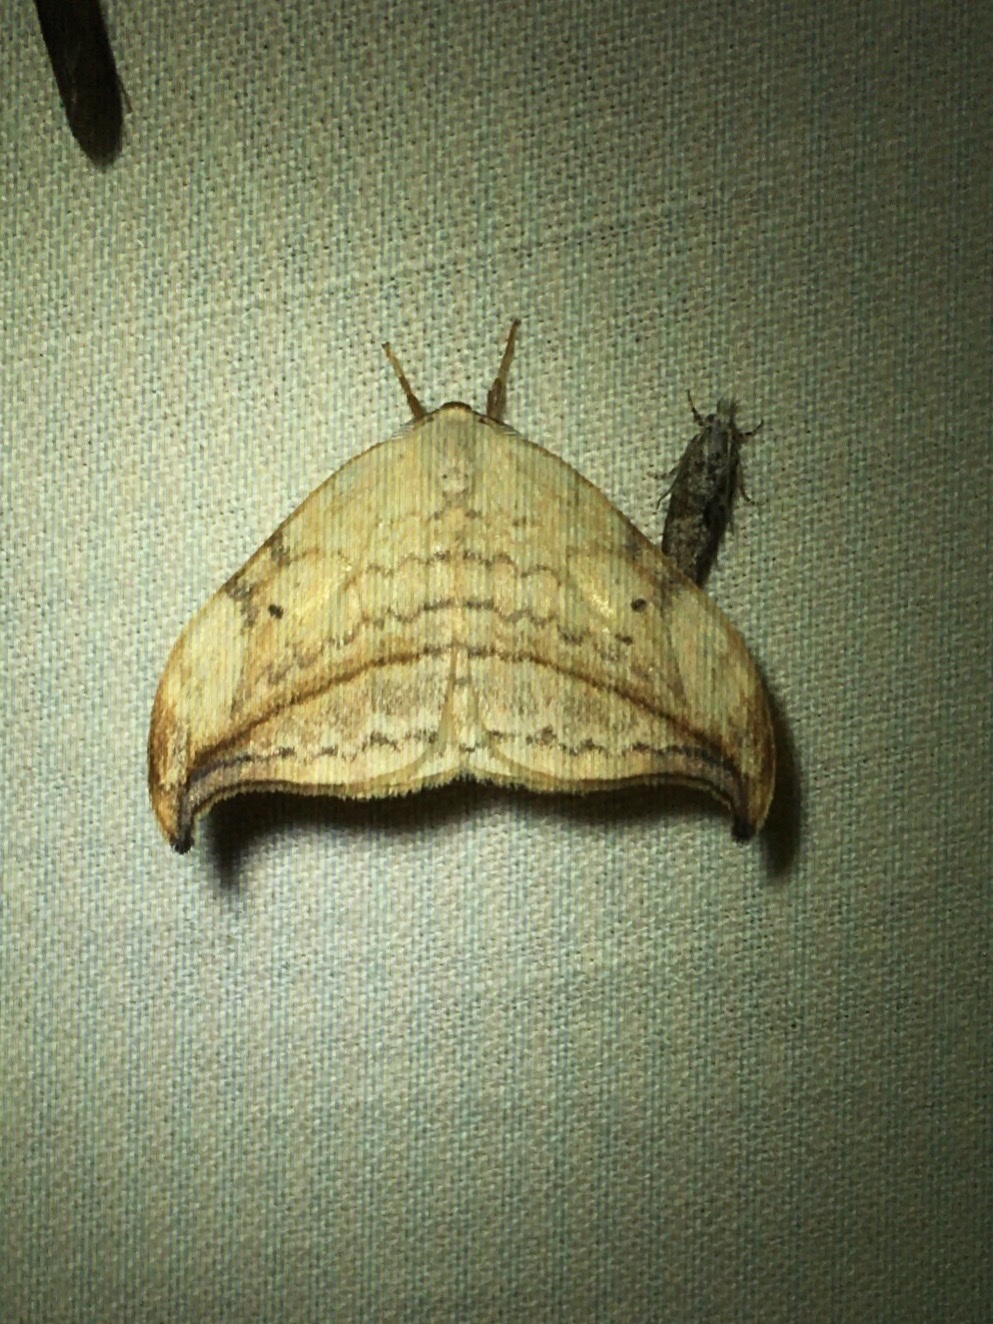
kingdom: Animalia
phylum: Arthropoda
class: Insecta
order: Lepidoptera
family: Drepanidae
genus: Drepana
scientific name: Drepana arcuata
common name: Arched hooktip moth
